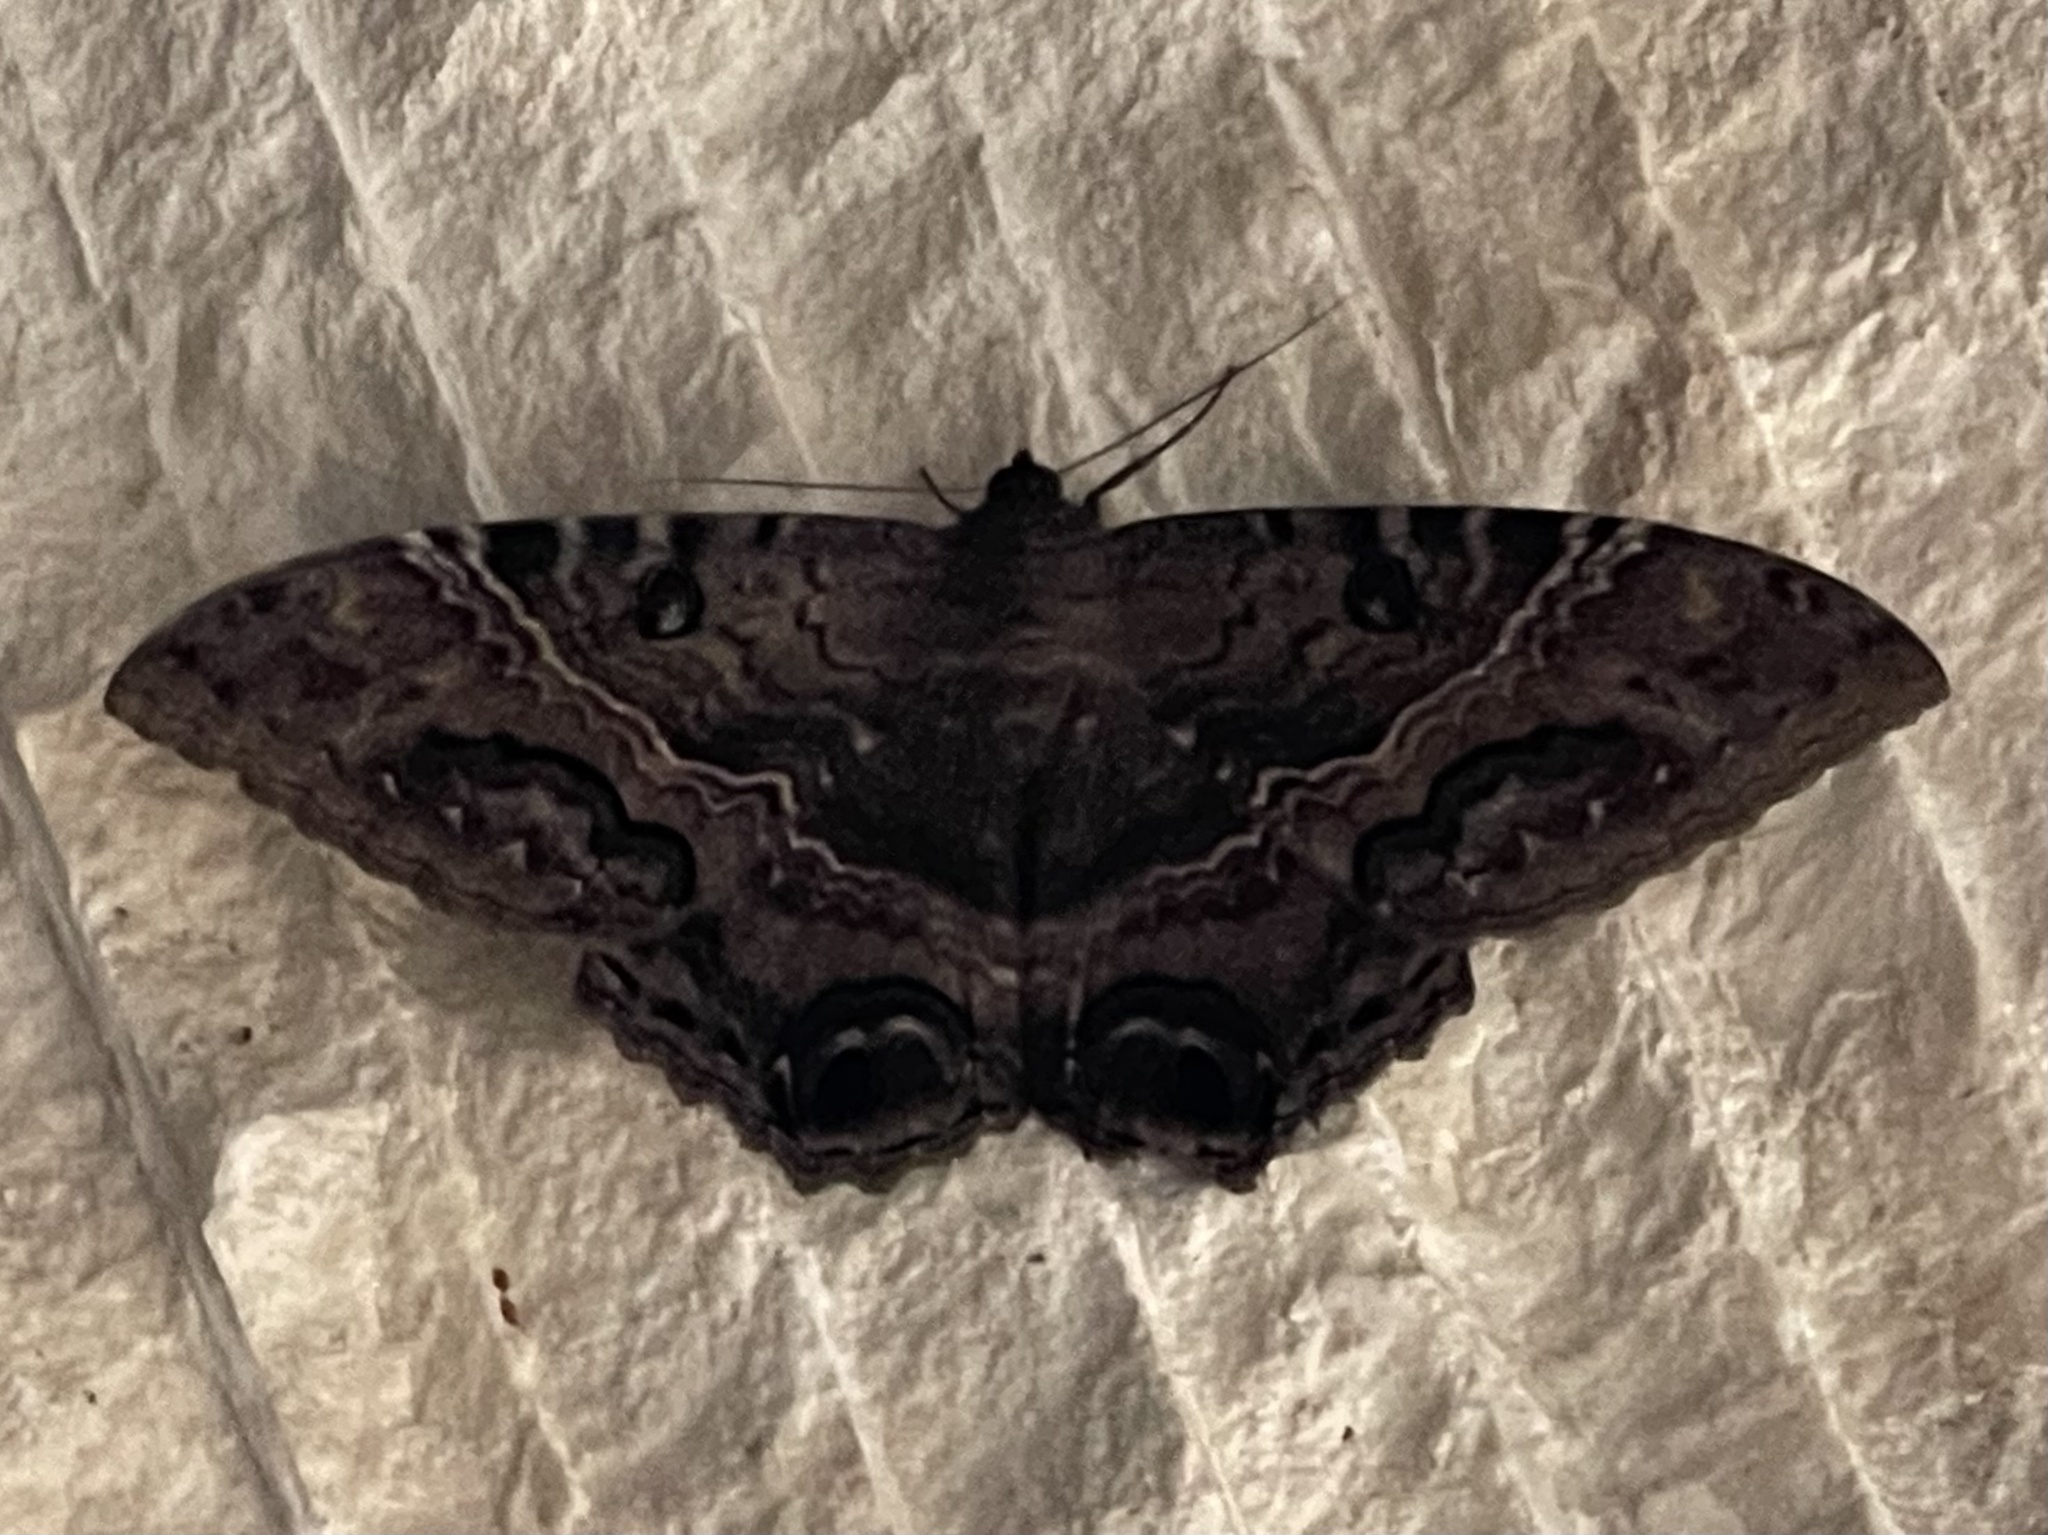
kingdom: Animalia
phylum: Arthropoda
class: Insecta
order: Lepidoptera
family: Erebidae
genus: Ascalapha
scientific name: Ascalapha odorata
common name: Black witch
